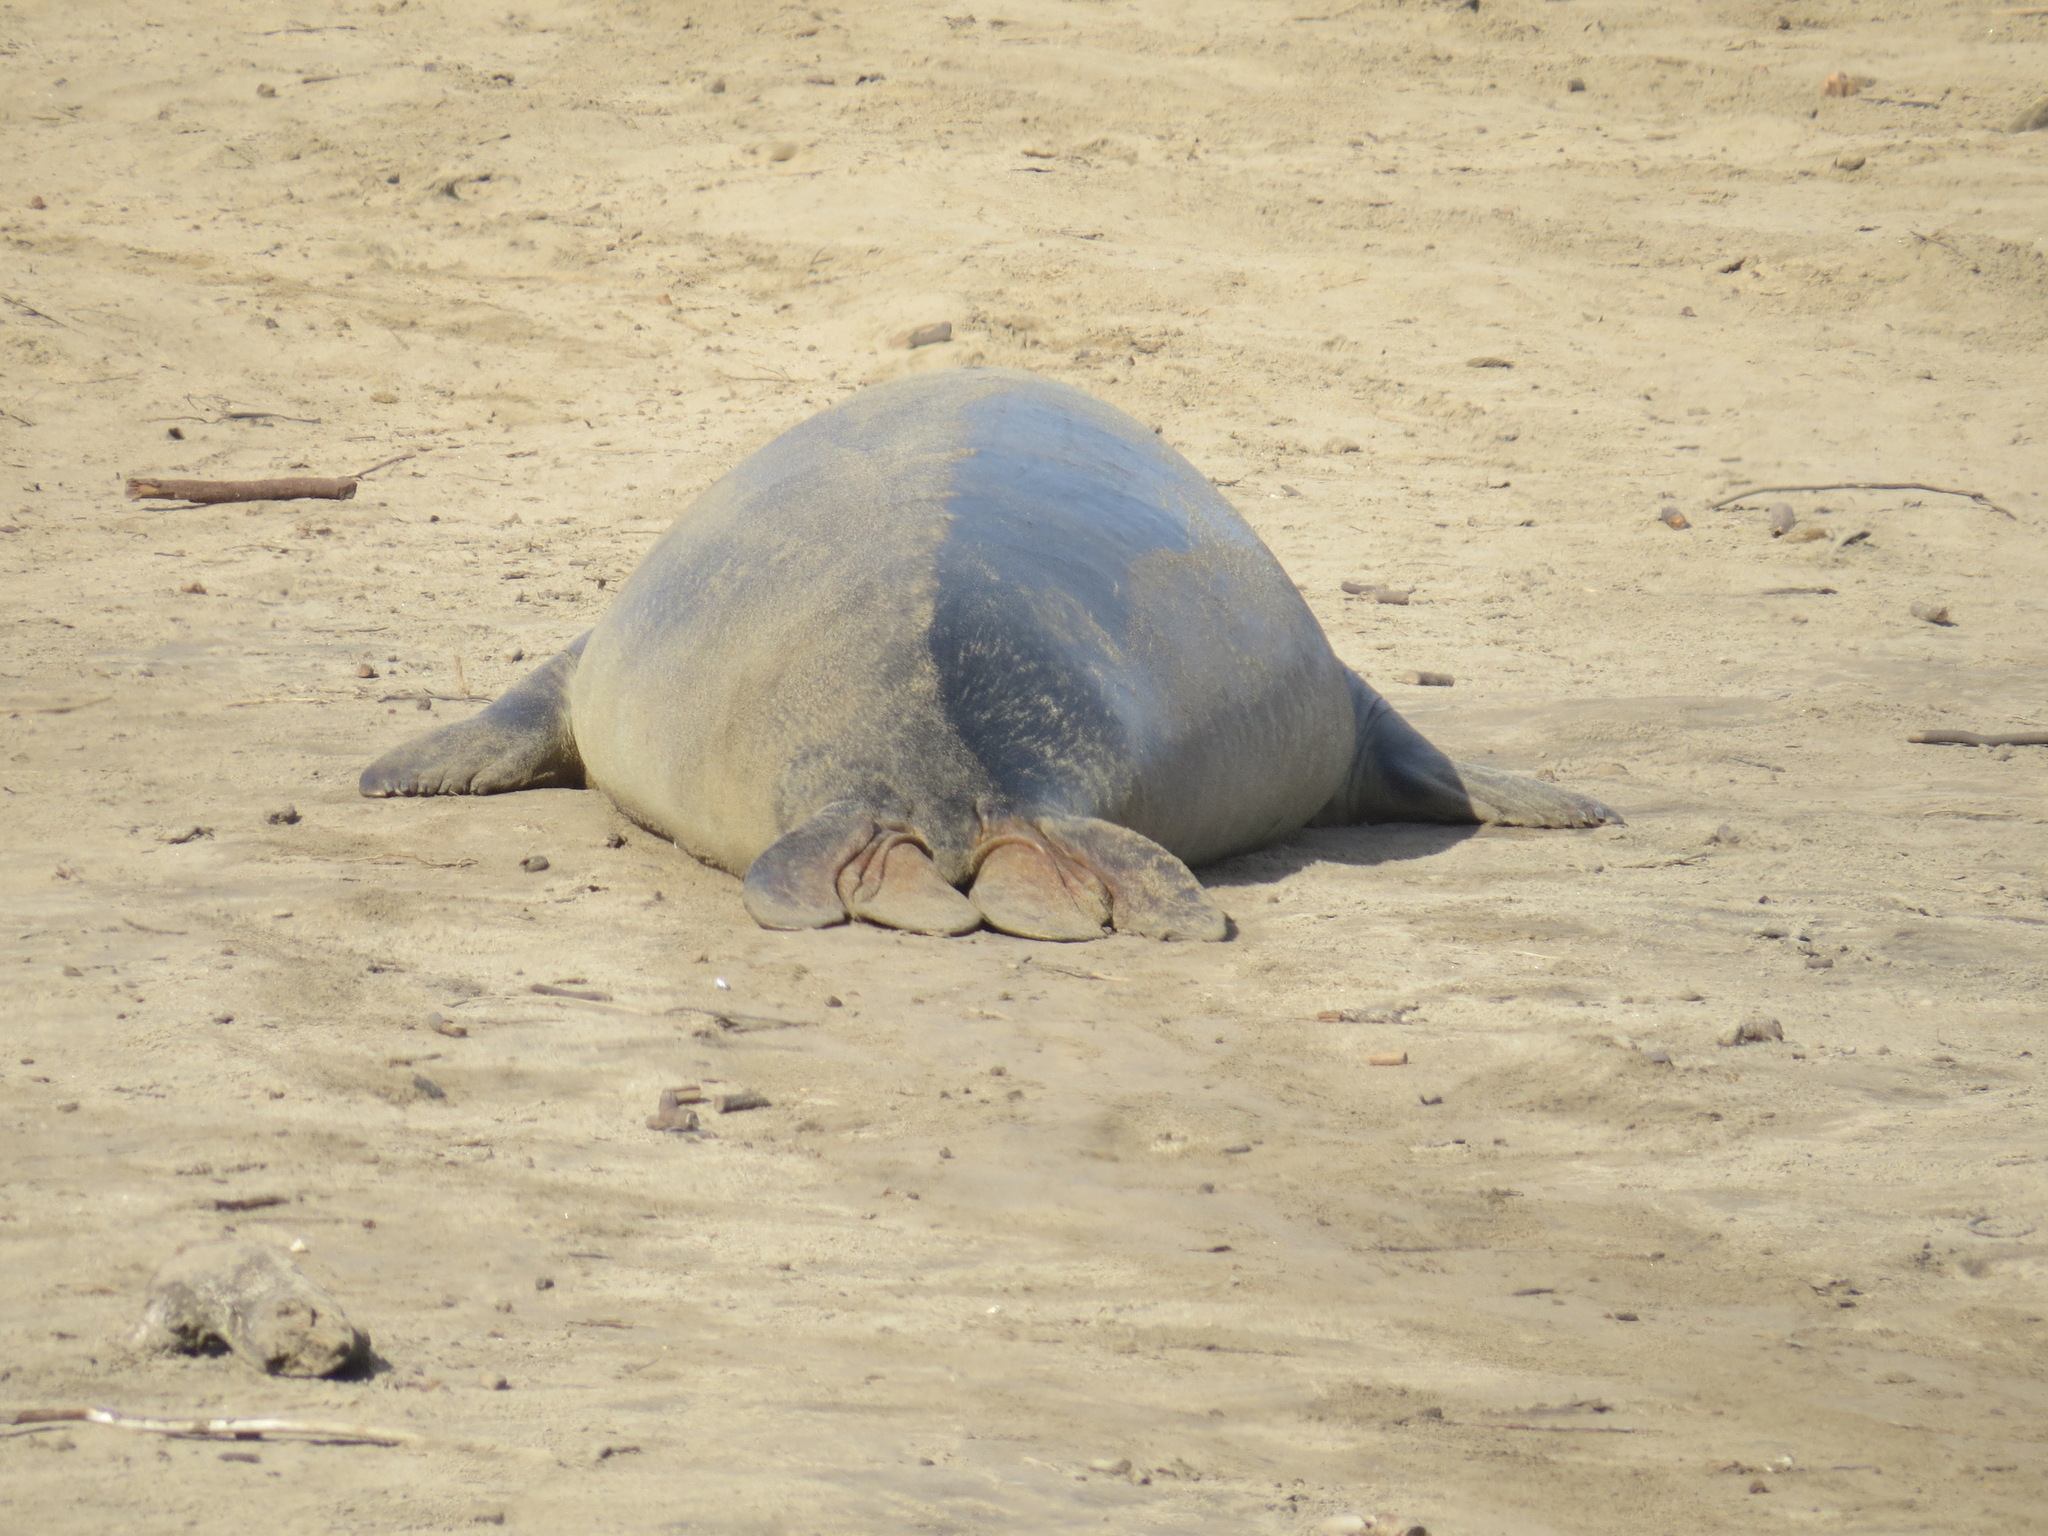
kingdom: Animalia
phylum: Chordata
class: Mammalia
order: Carnivora
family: Phocidae
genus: Mirounga
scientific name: Mirounga angustirostris
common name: Northern elephant seal
